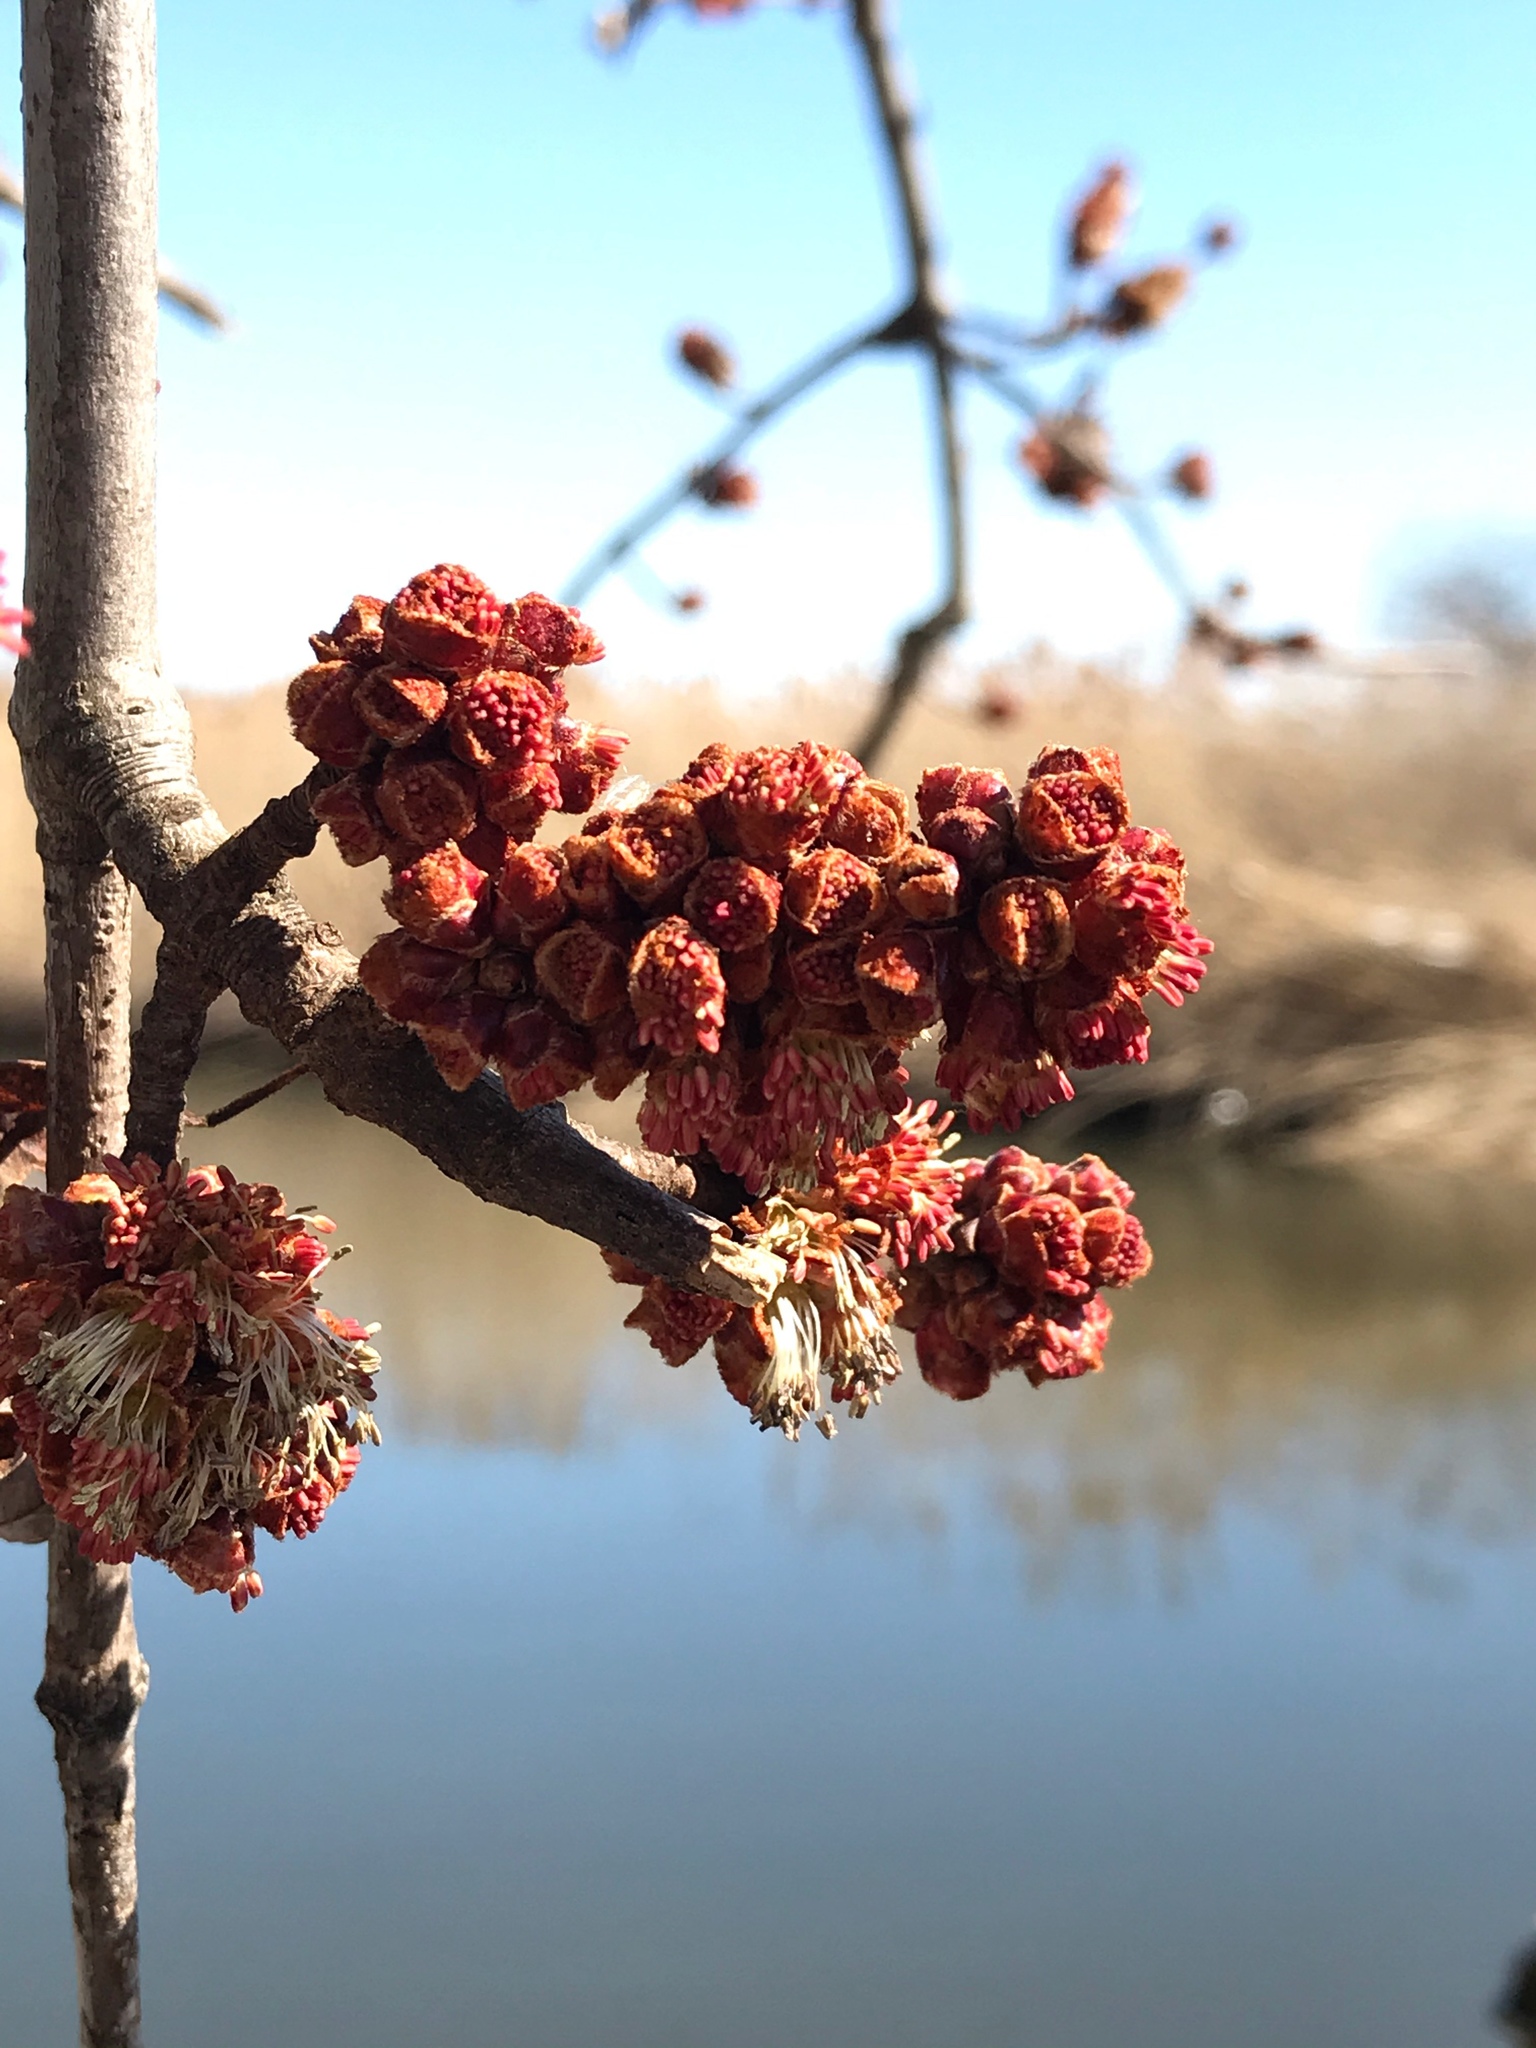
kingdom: Plantae
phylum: Tracheophyta
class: Magnoliopsida
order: Sapindales
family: Sapindaceae
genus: Acer
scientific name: Acer saccharinum
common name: Silver maple
